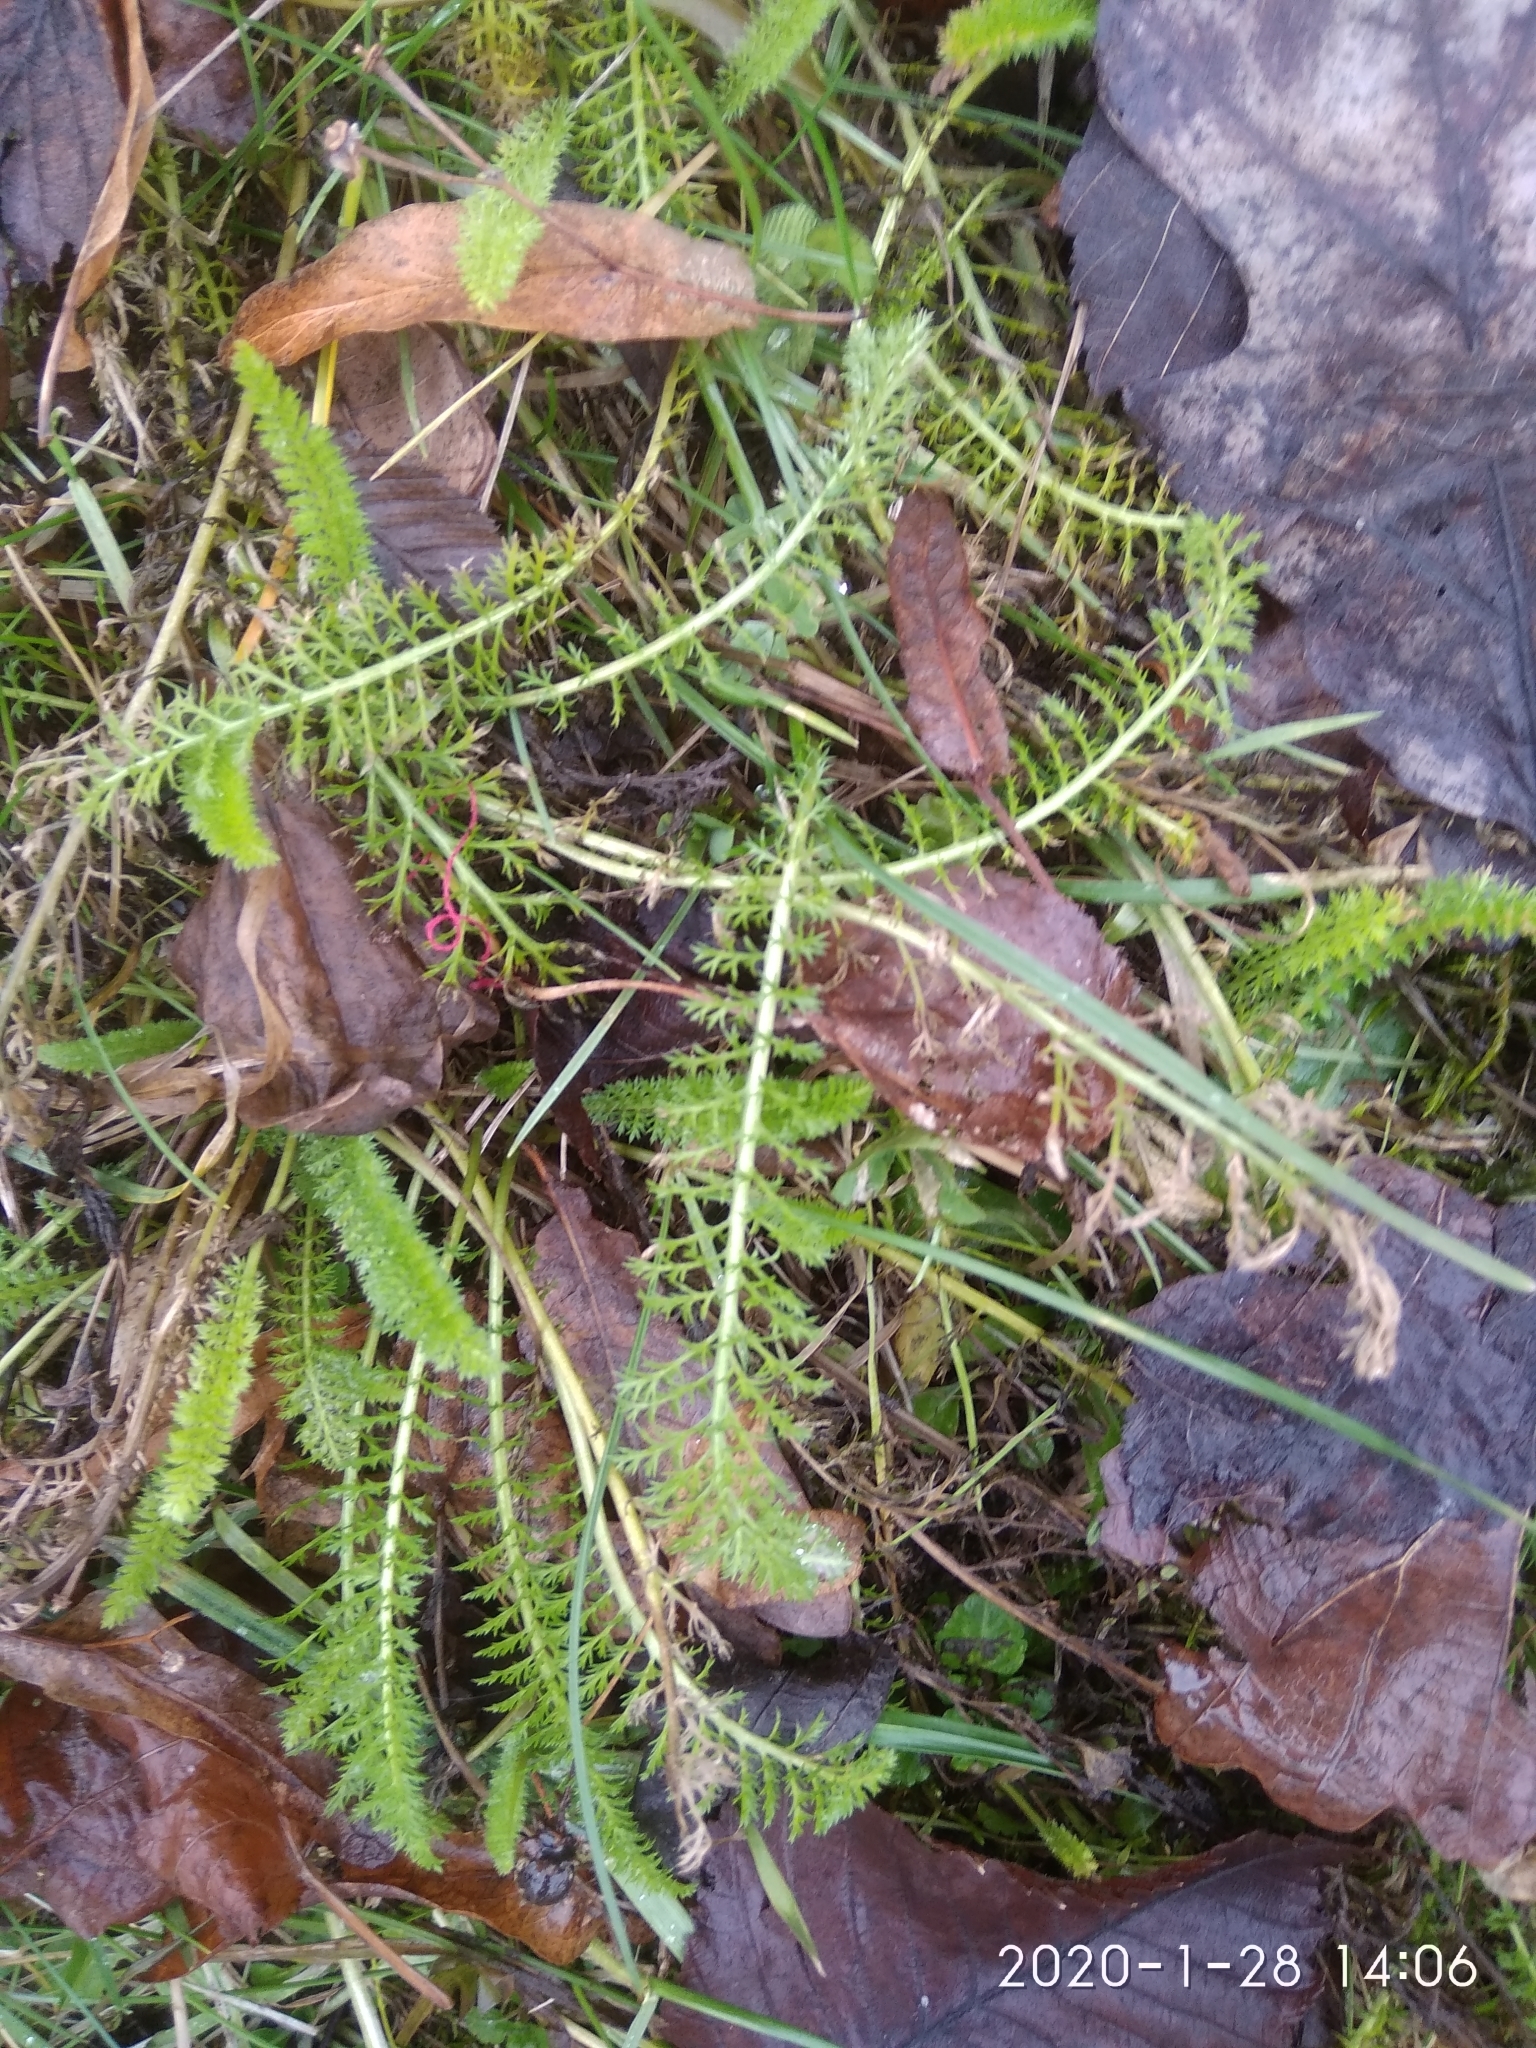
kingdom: Plantae
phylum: Tracheophyta
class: Magnoliopsida
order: Asterales
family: Asteraceae
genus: Achillea
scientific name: Achillea millefolium
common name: Yarrow
